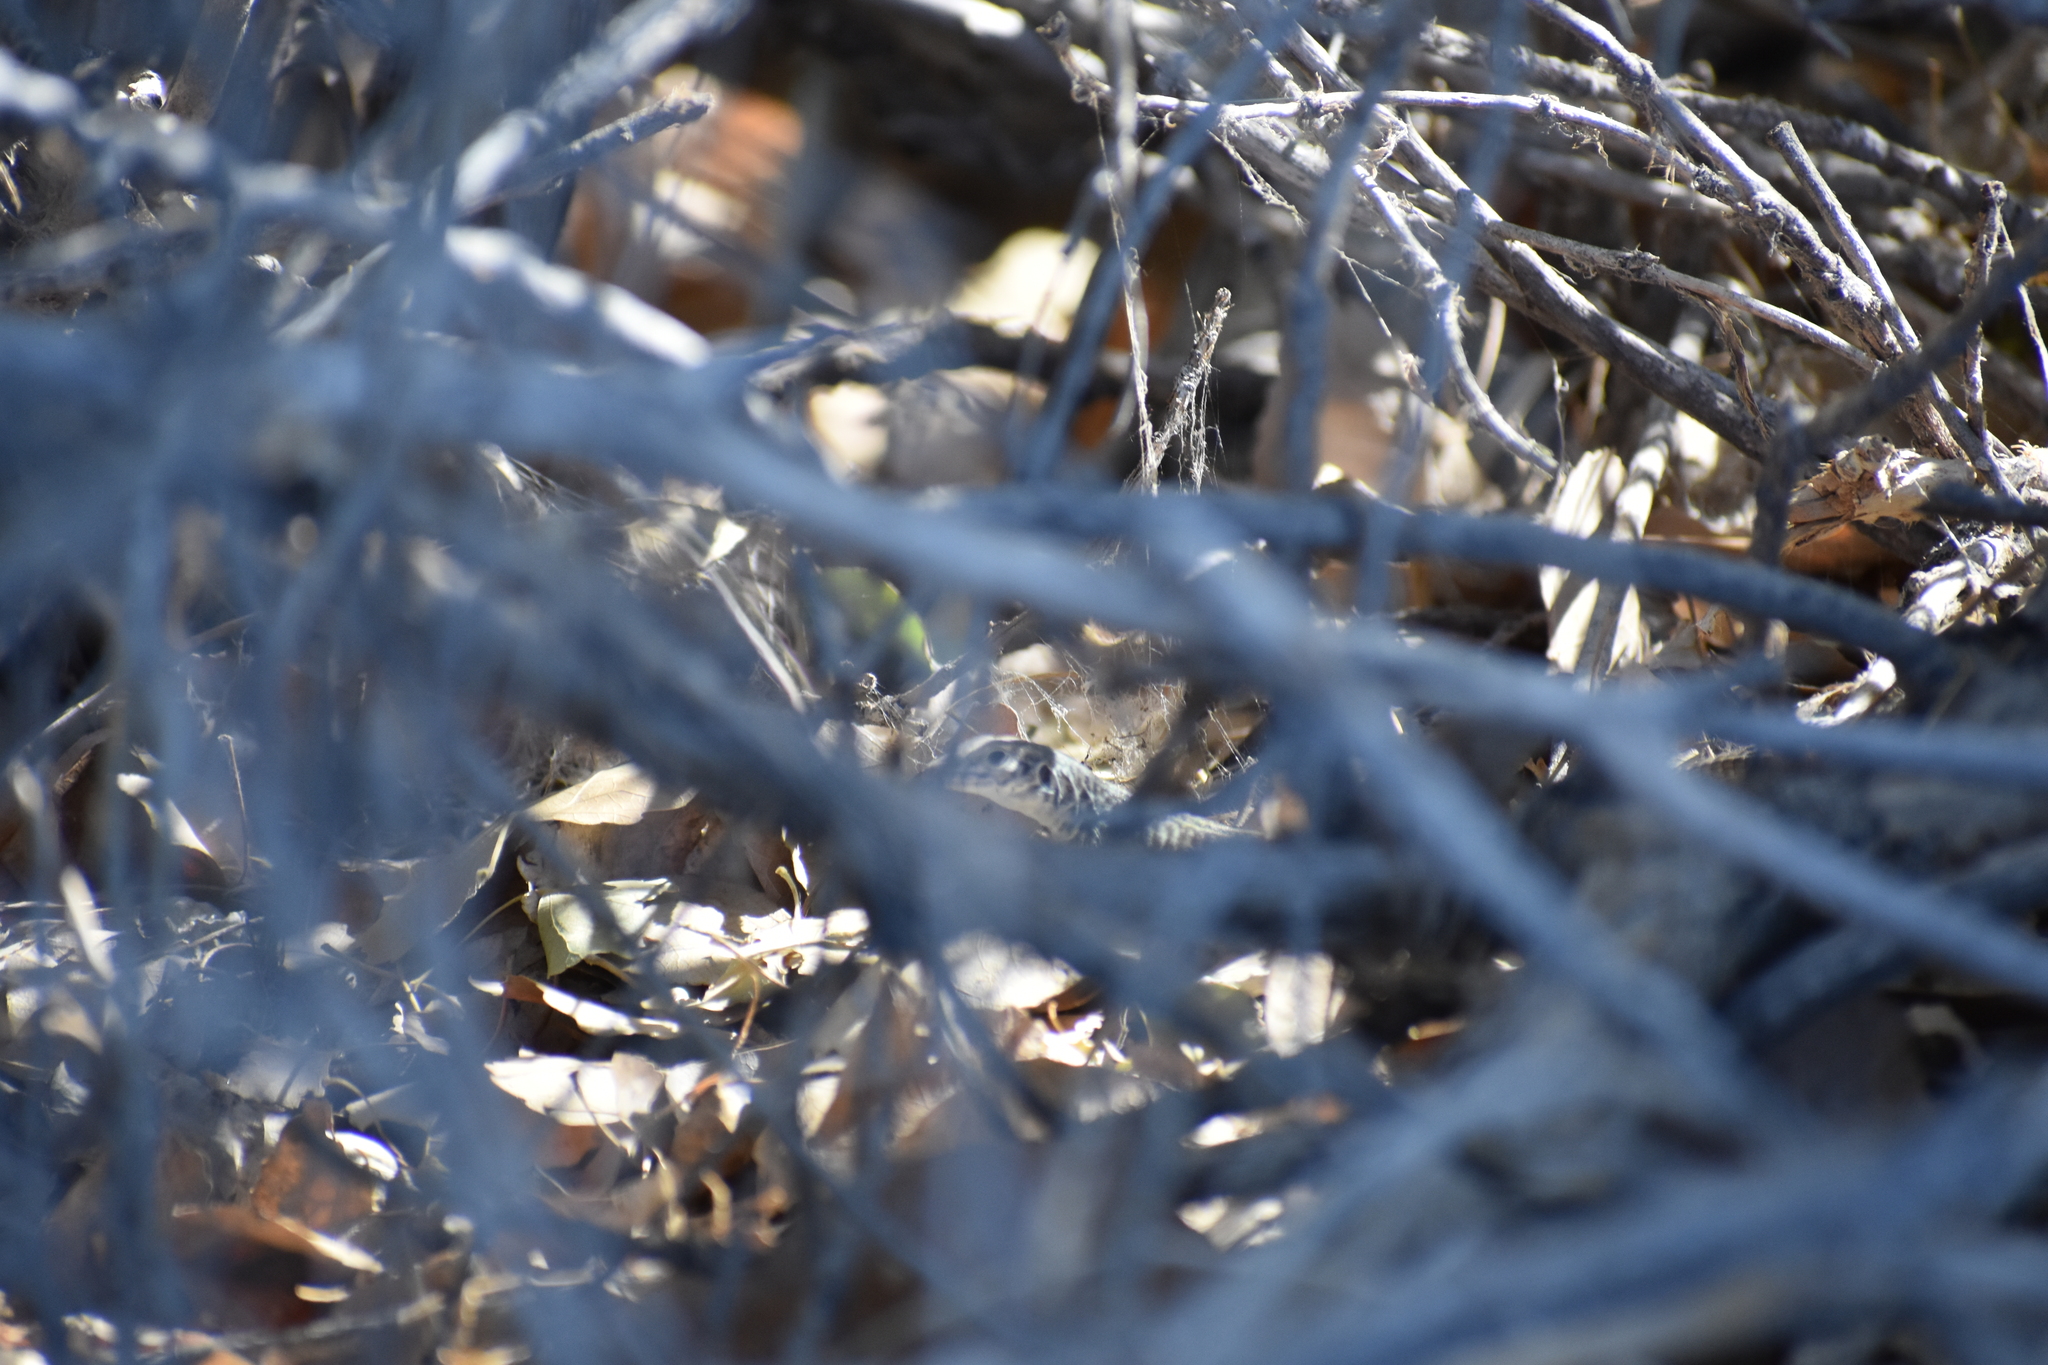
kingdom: Animalia
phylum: Chordata
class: Squamata
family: Teiidae
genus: Aspidoscelis
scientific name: Aspidoscelis tigris
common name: Tiger whiptail
